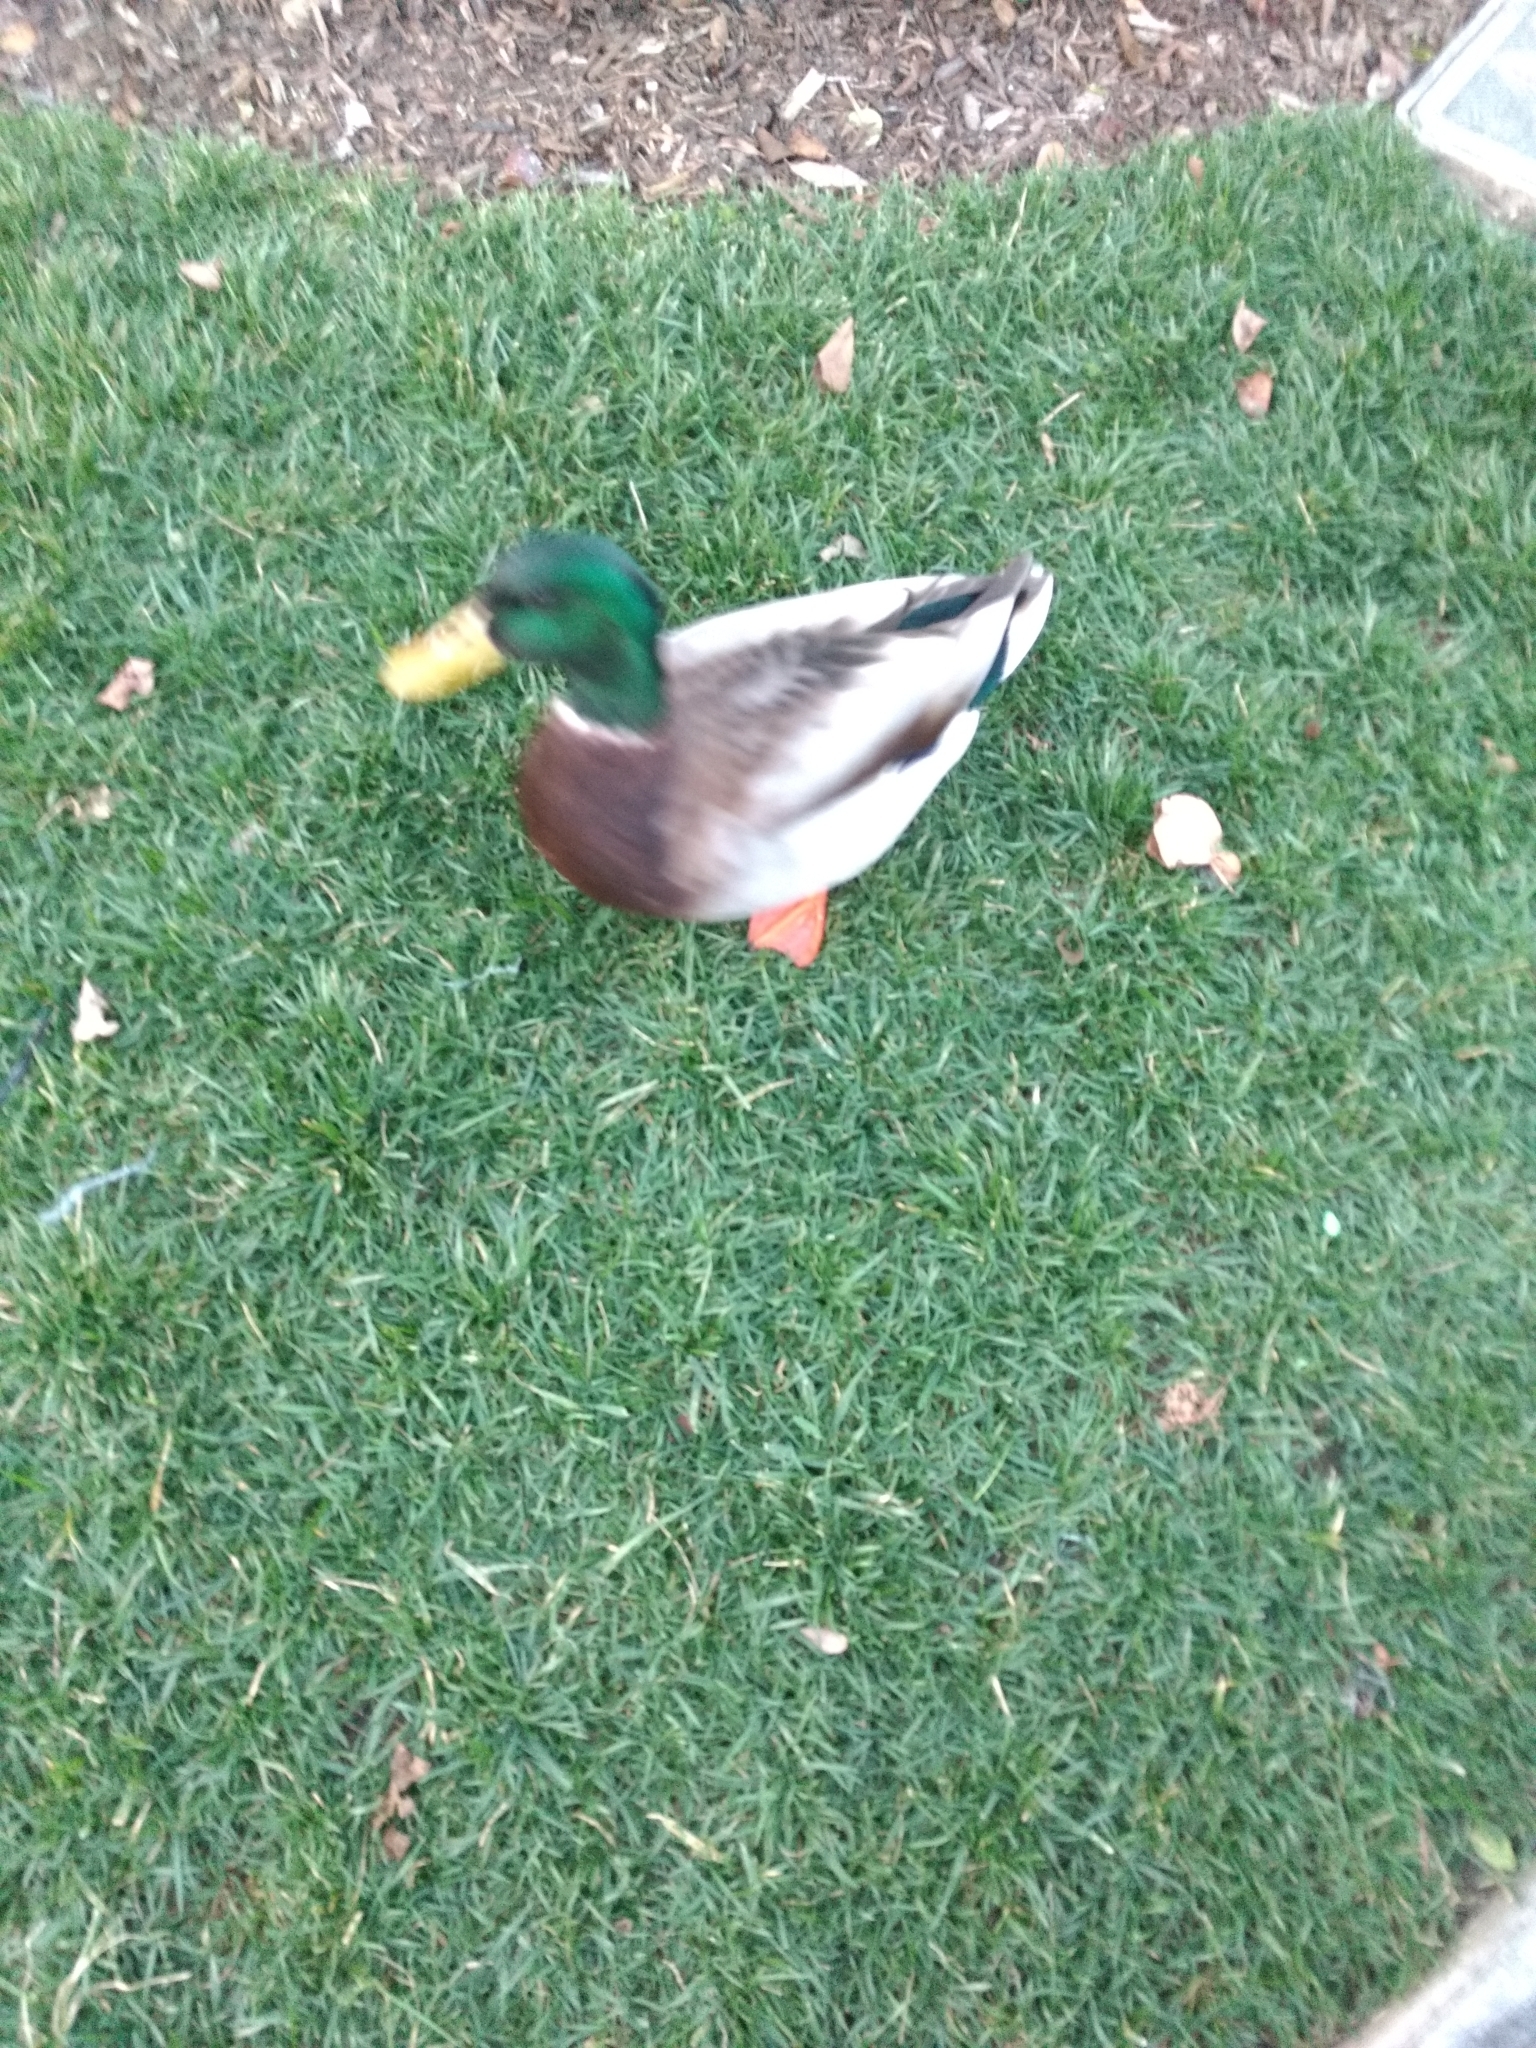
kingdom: Animalia
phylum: Chordata
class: Aves
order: Anseriformes
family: Anatidae
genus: Anas
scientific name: Anas platyrhynchos
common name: Mallard
